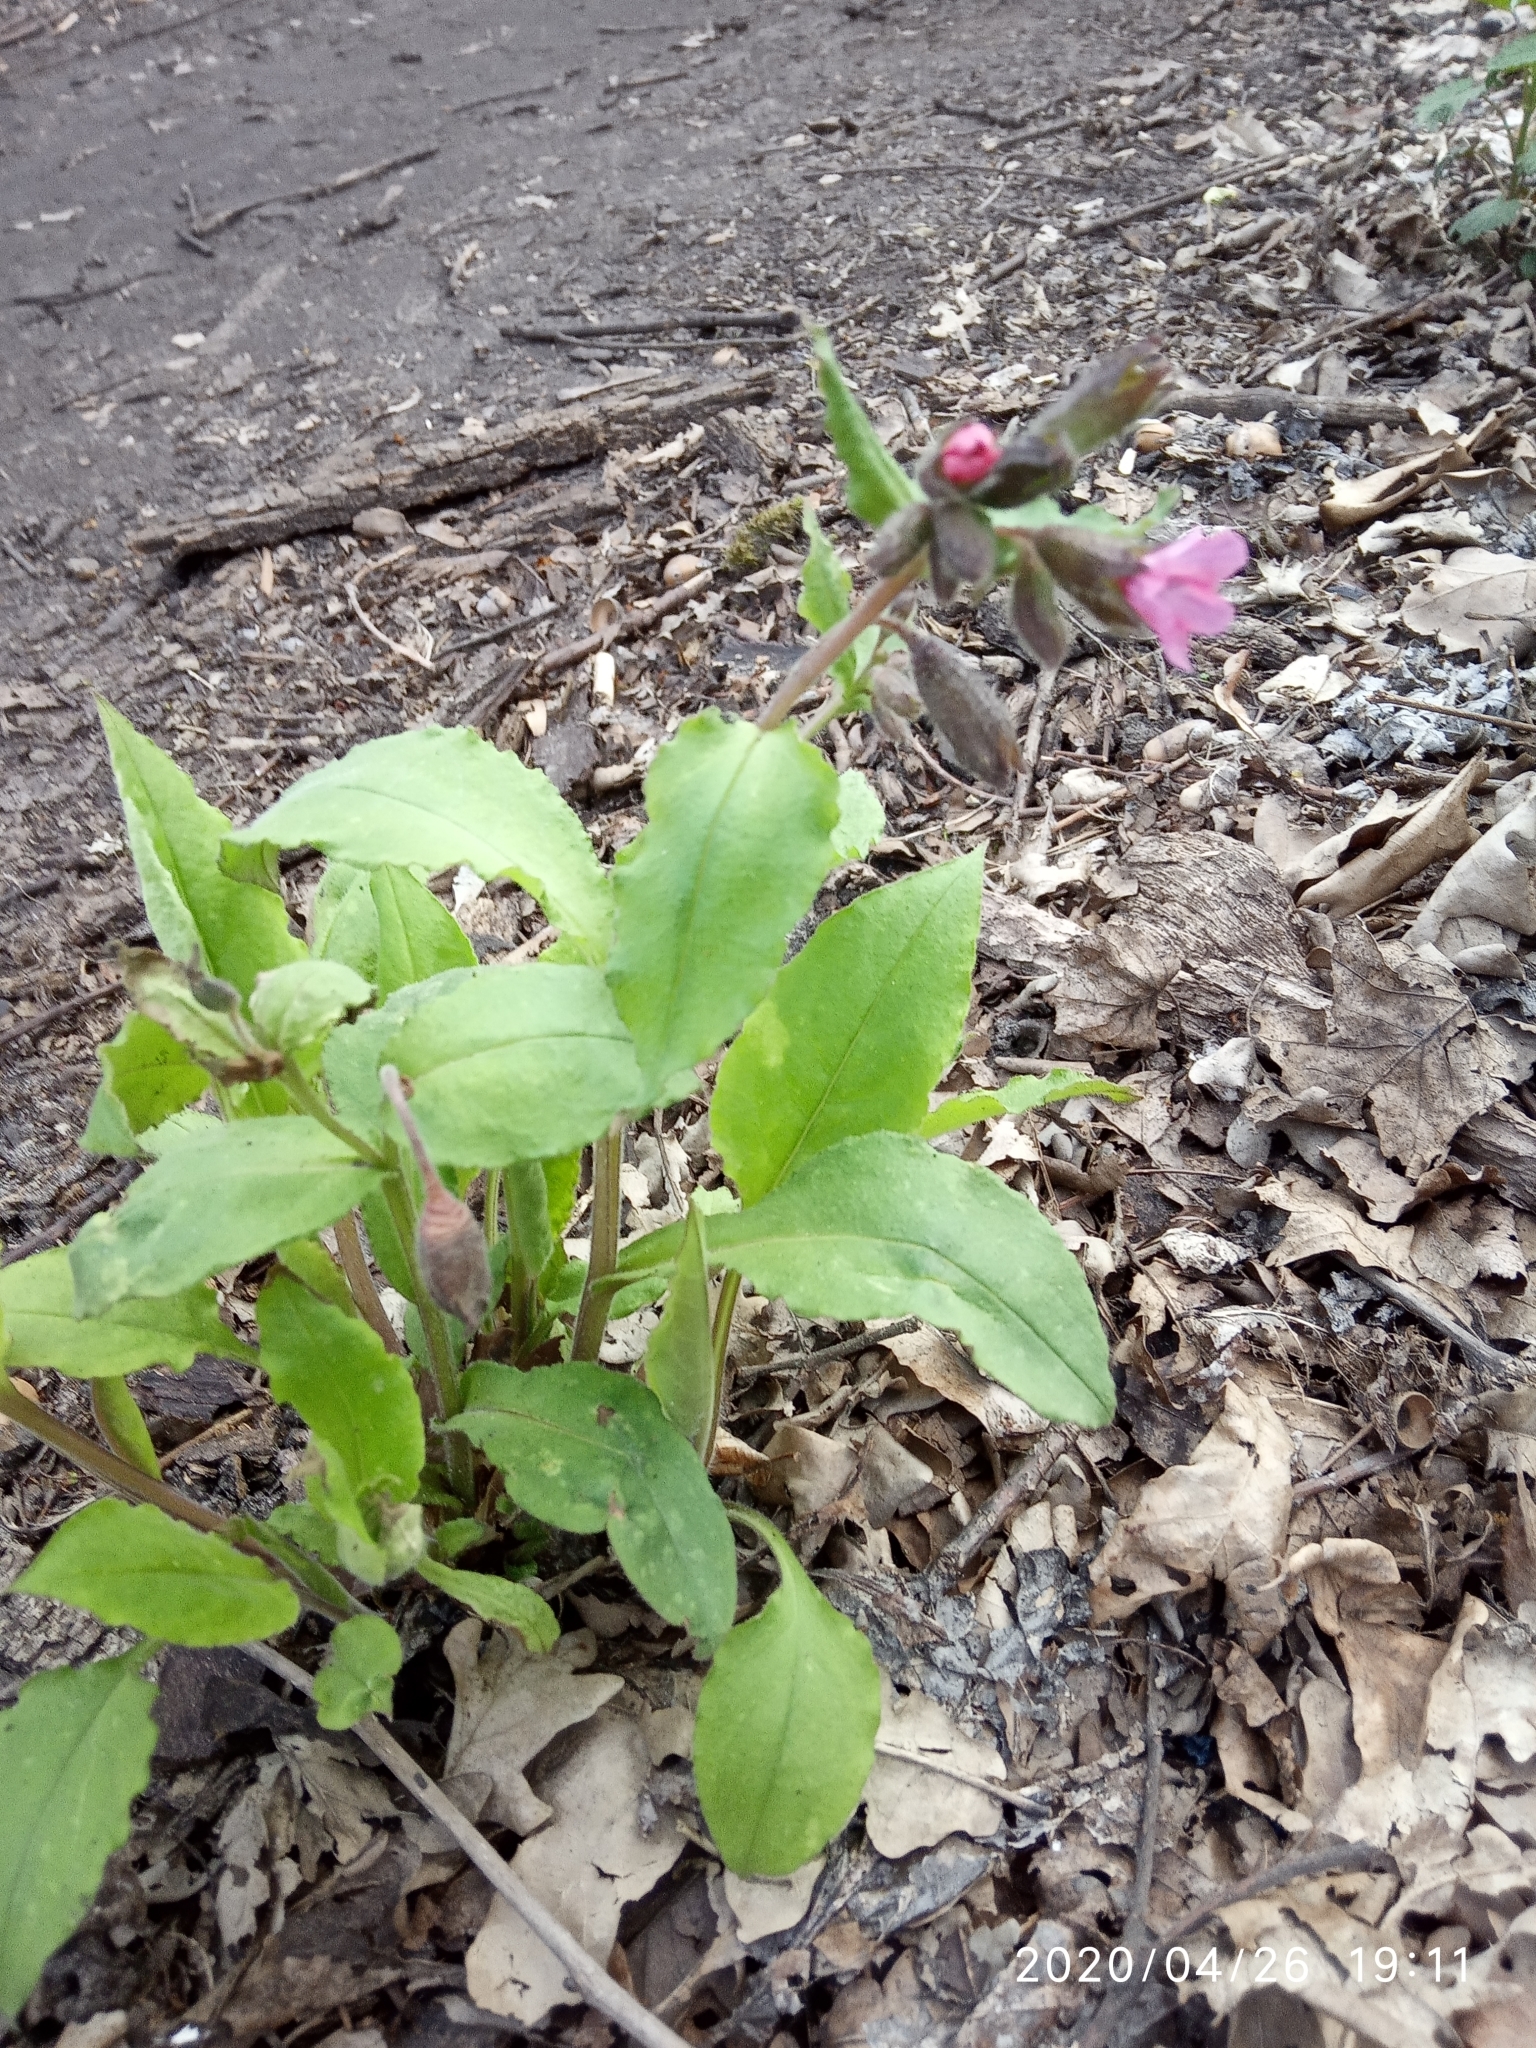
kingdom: Plantae
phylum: Tracheophyta
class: Magnoliopsida
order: Boraginales
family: Boraginaceae
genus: Pulmonaria
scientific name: Pulmonaria obscura
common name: Suffolk lungwort
